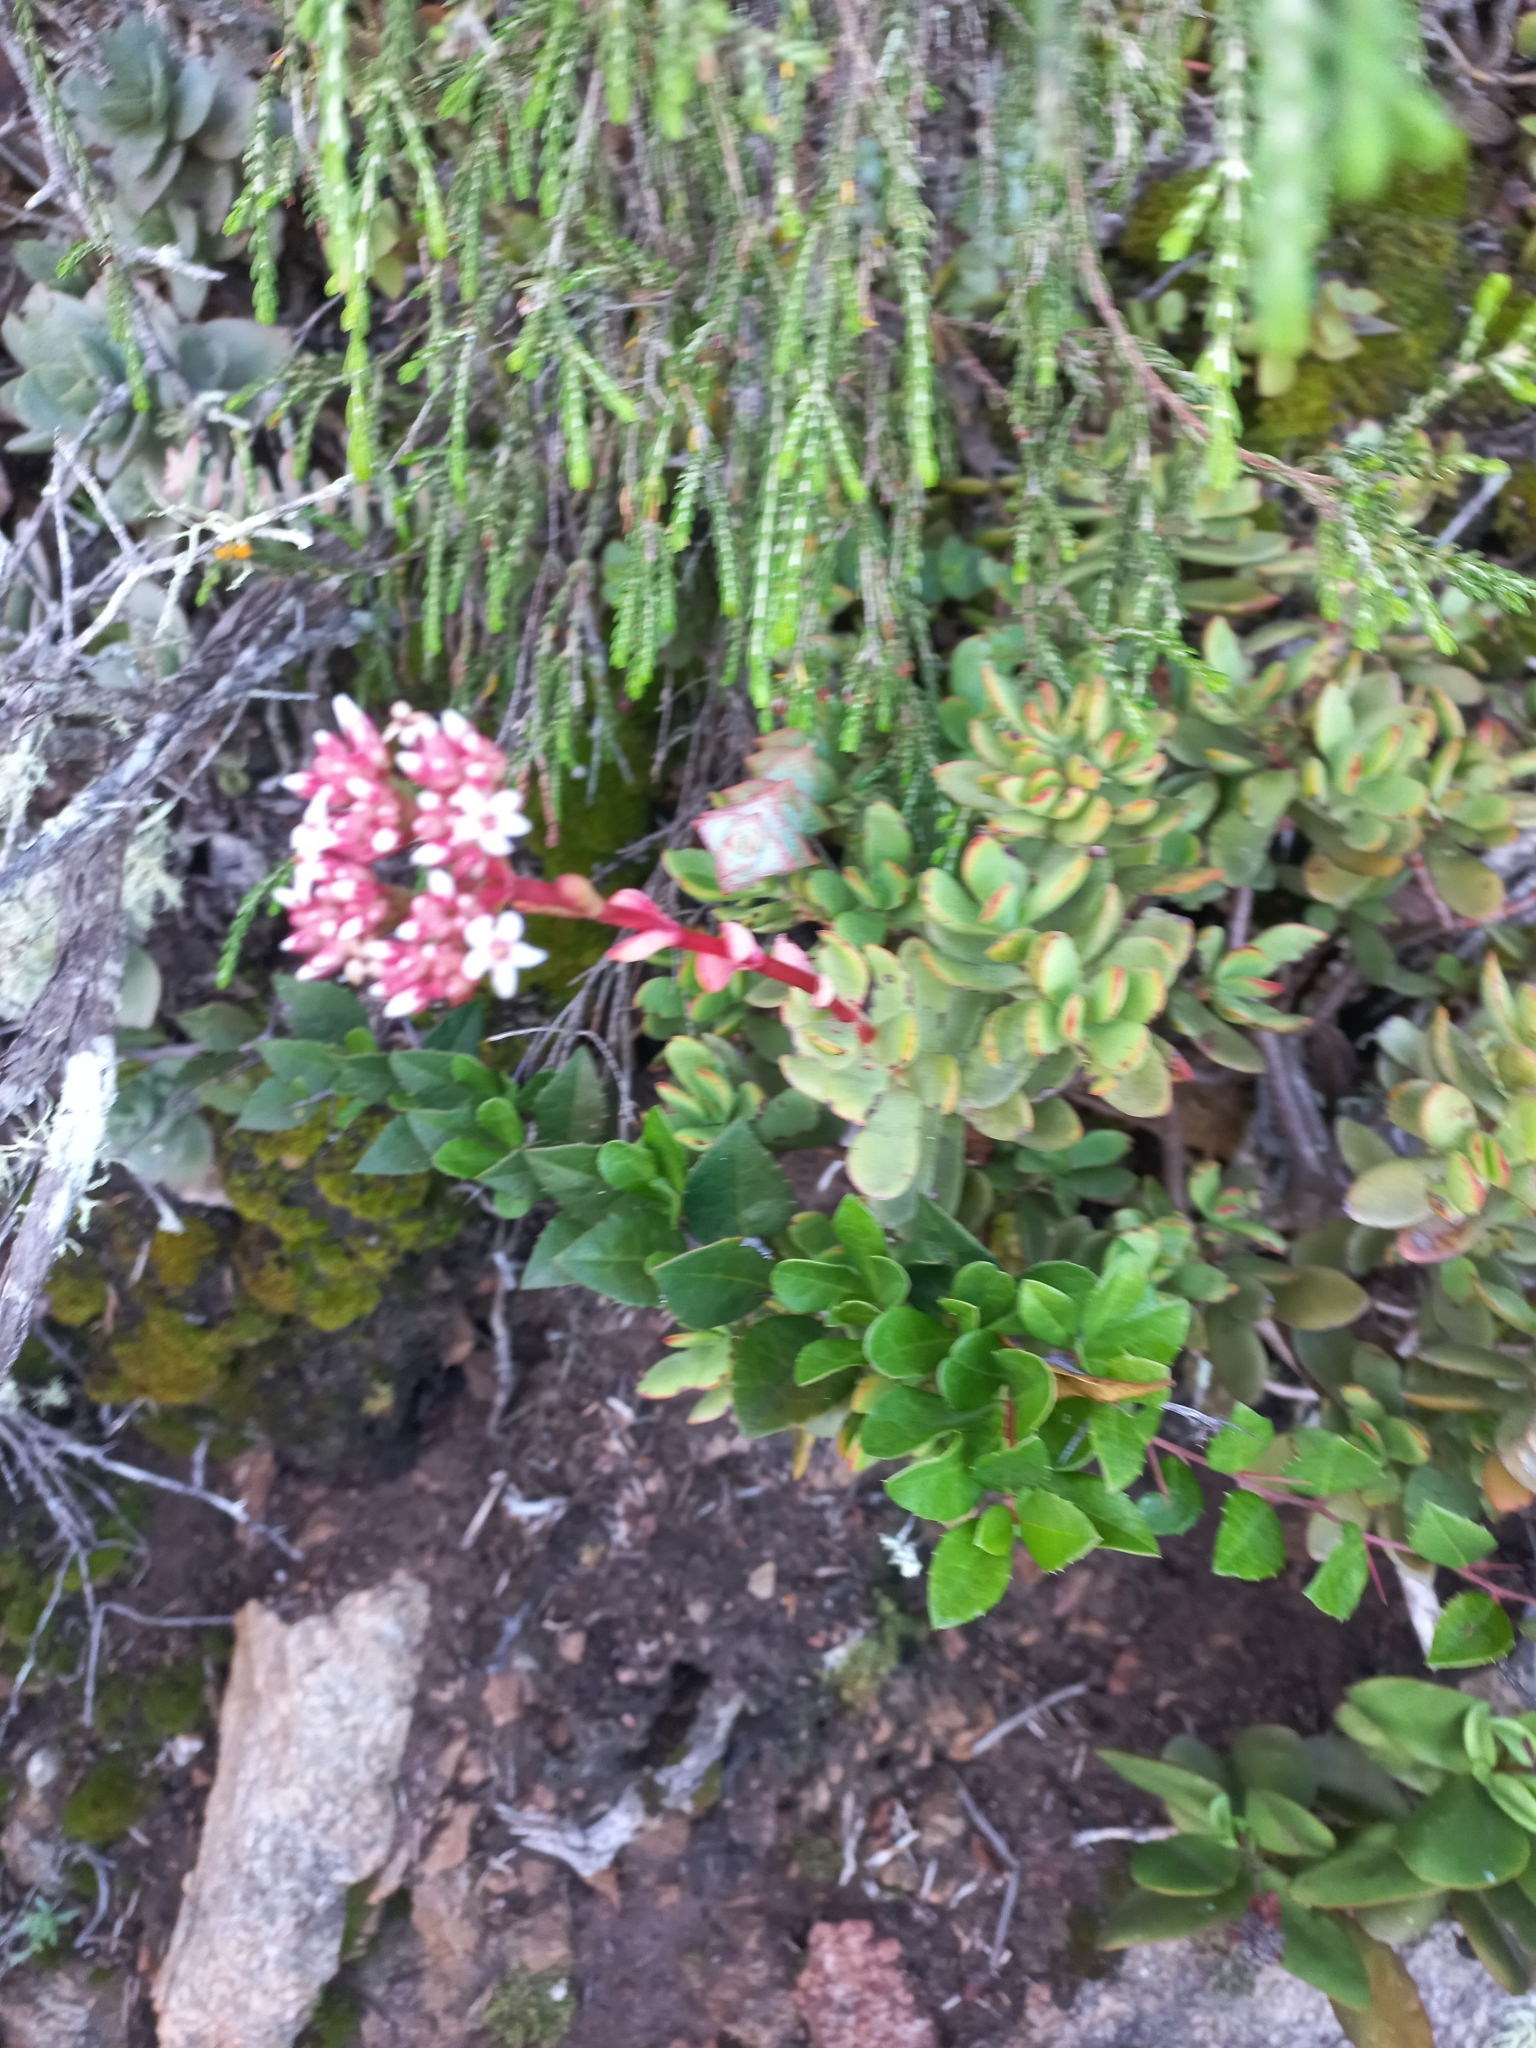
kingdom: Plantae
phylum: Tracheophyta
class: Magnoliopsida
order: Saxifragales
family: Crassulaceae
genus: Crassula
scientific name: Crassula rubricaulis
